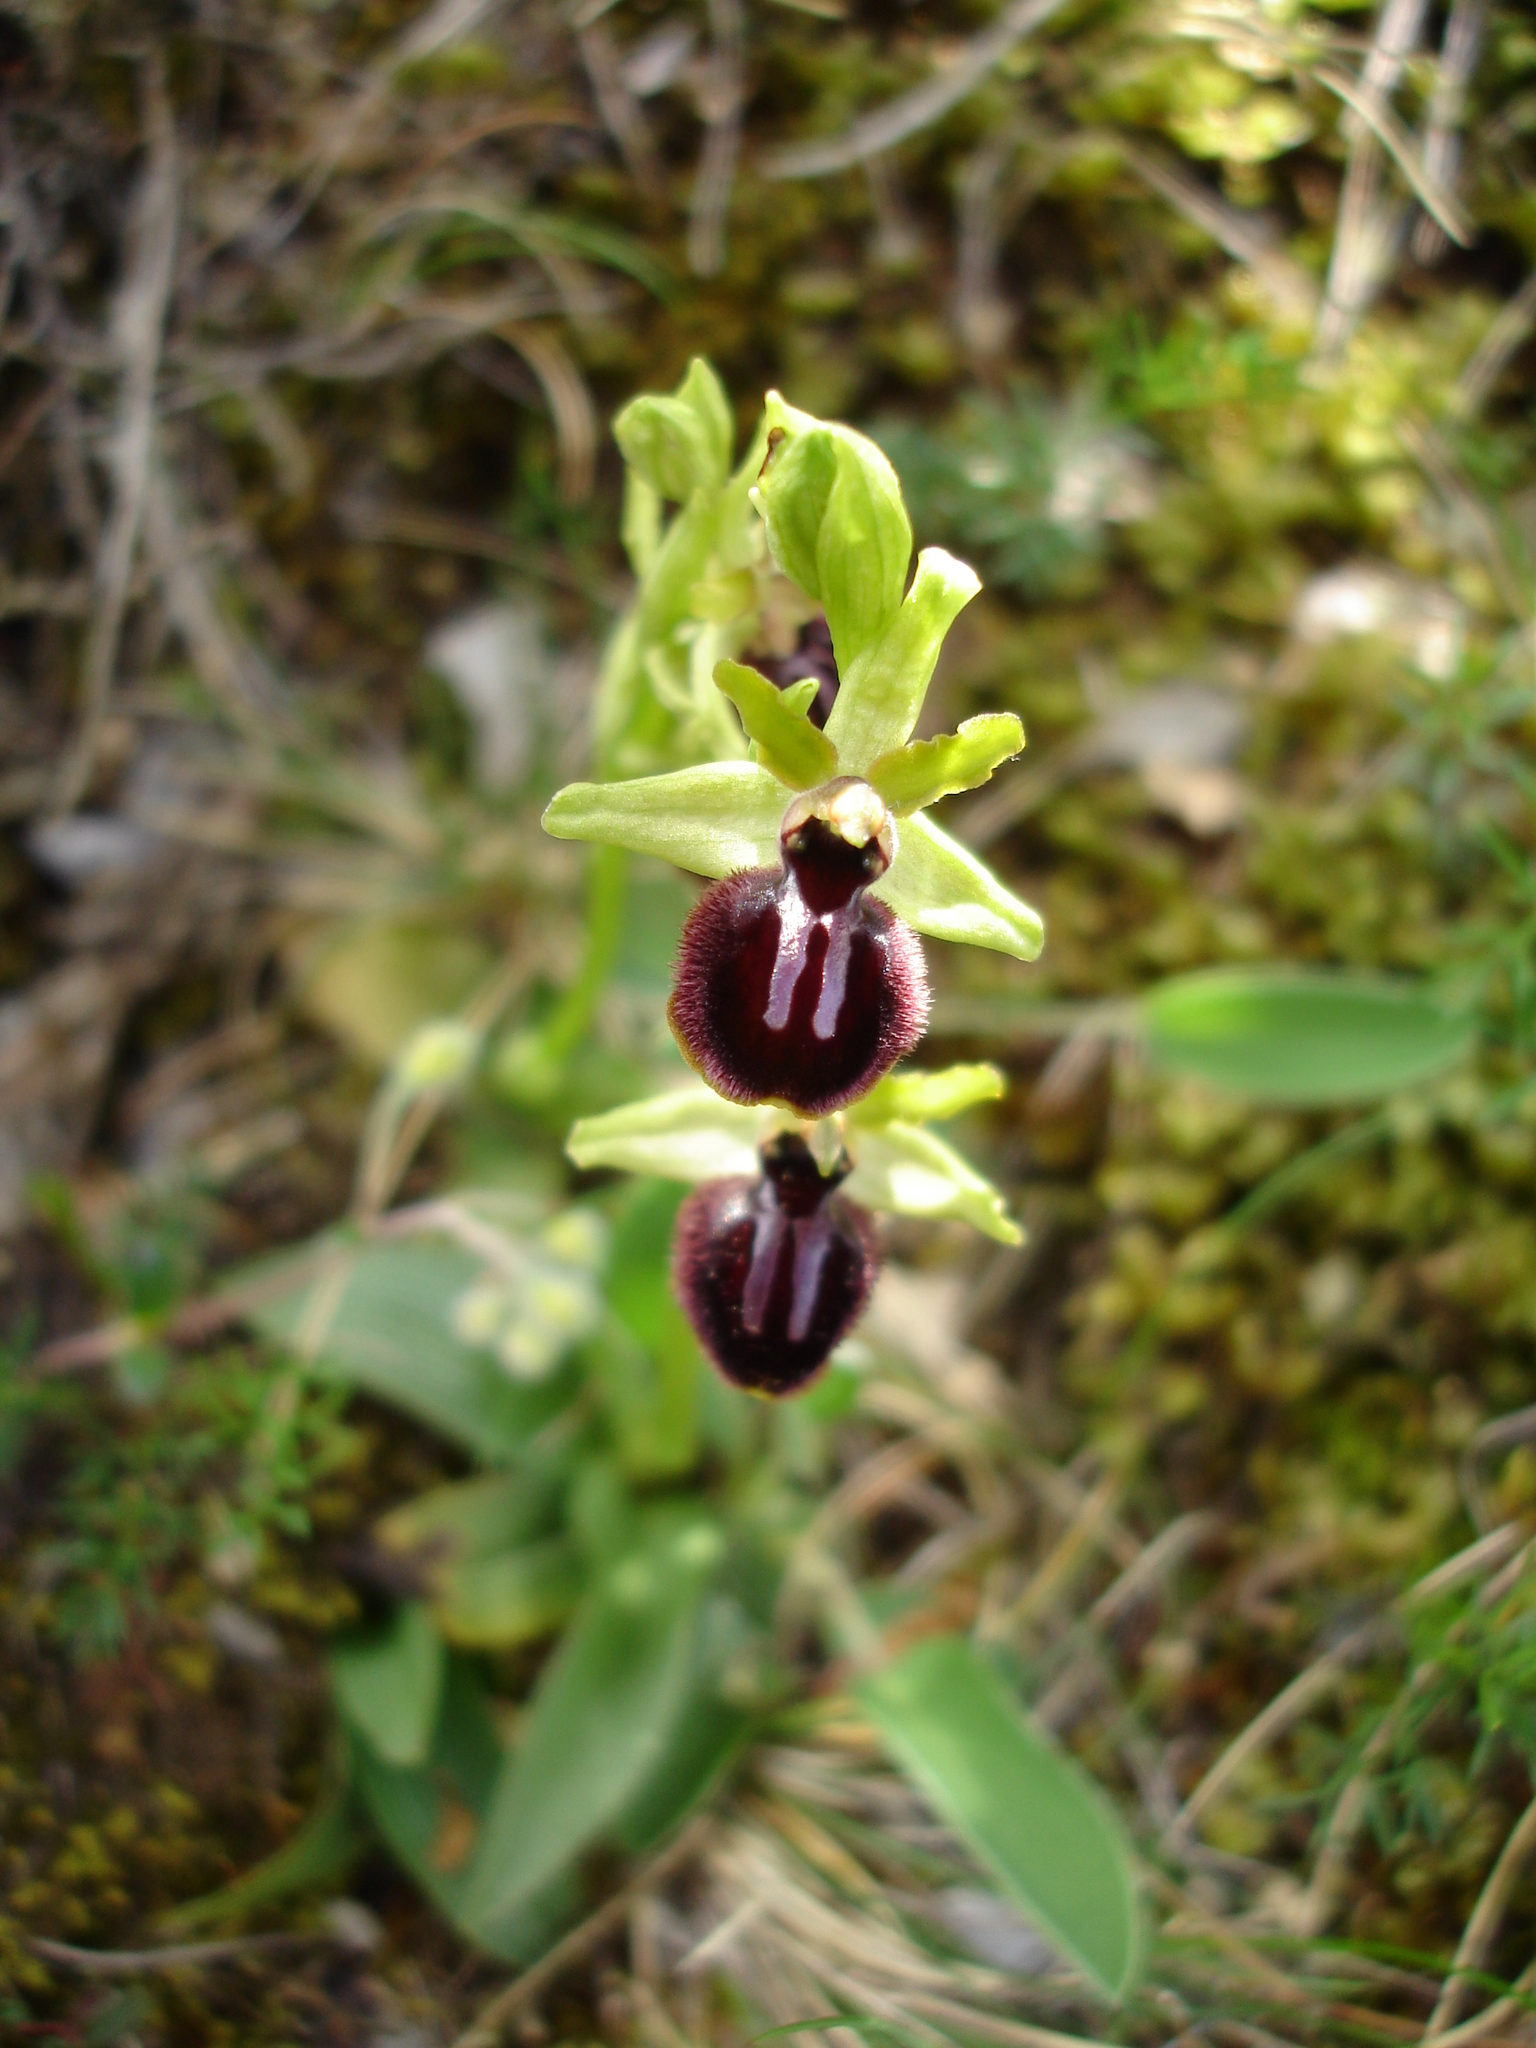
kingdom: Plantae
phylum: Tracheophyta
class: Liliopsida
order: Asparagales
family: Orchidaceae
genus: Ophrys
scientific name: Ophrys sphegodes
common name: Early spider-orchid
